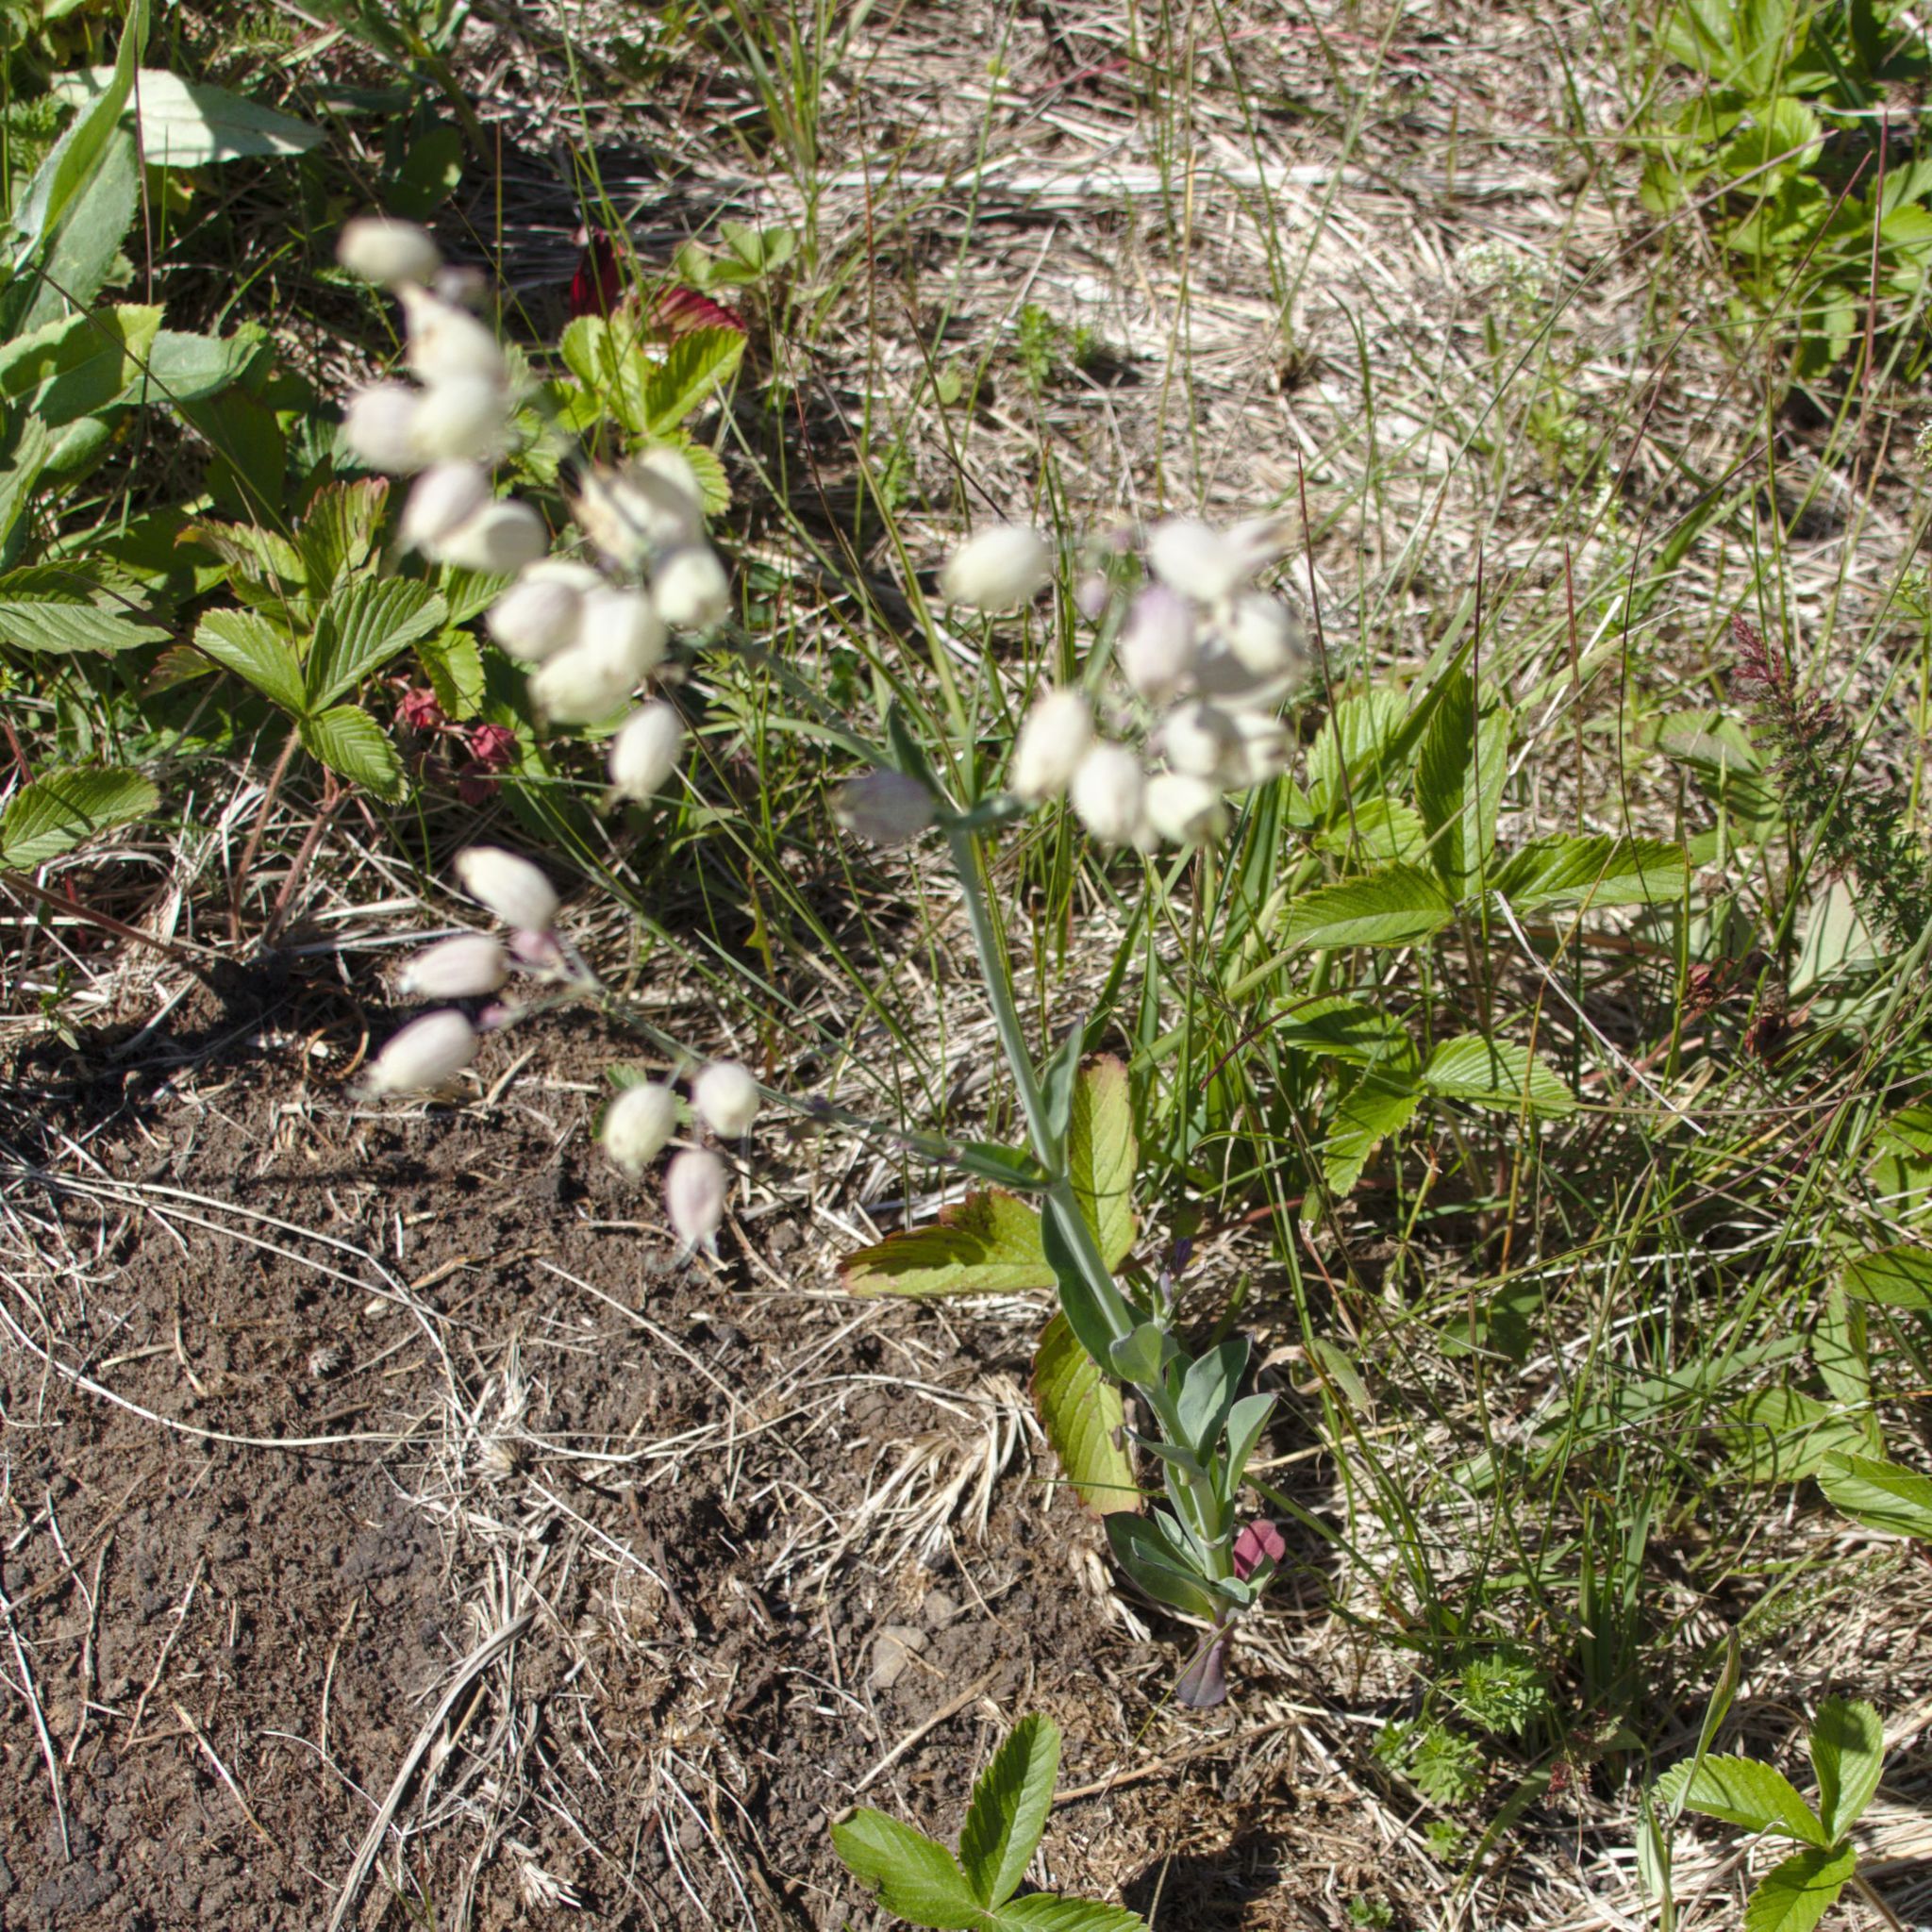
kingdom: Plantae
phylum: Tracheophyta
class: Magnoliopsida
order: Caryophyllales
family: Caryophyllaceae
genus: Silene
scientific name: Silene vulgaris
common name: Bladder campion
